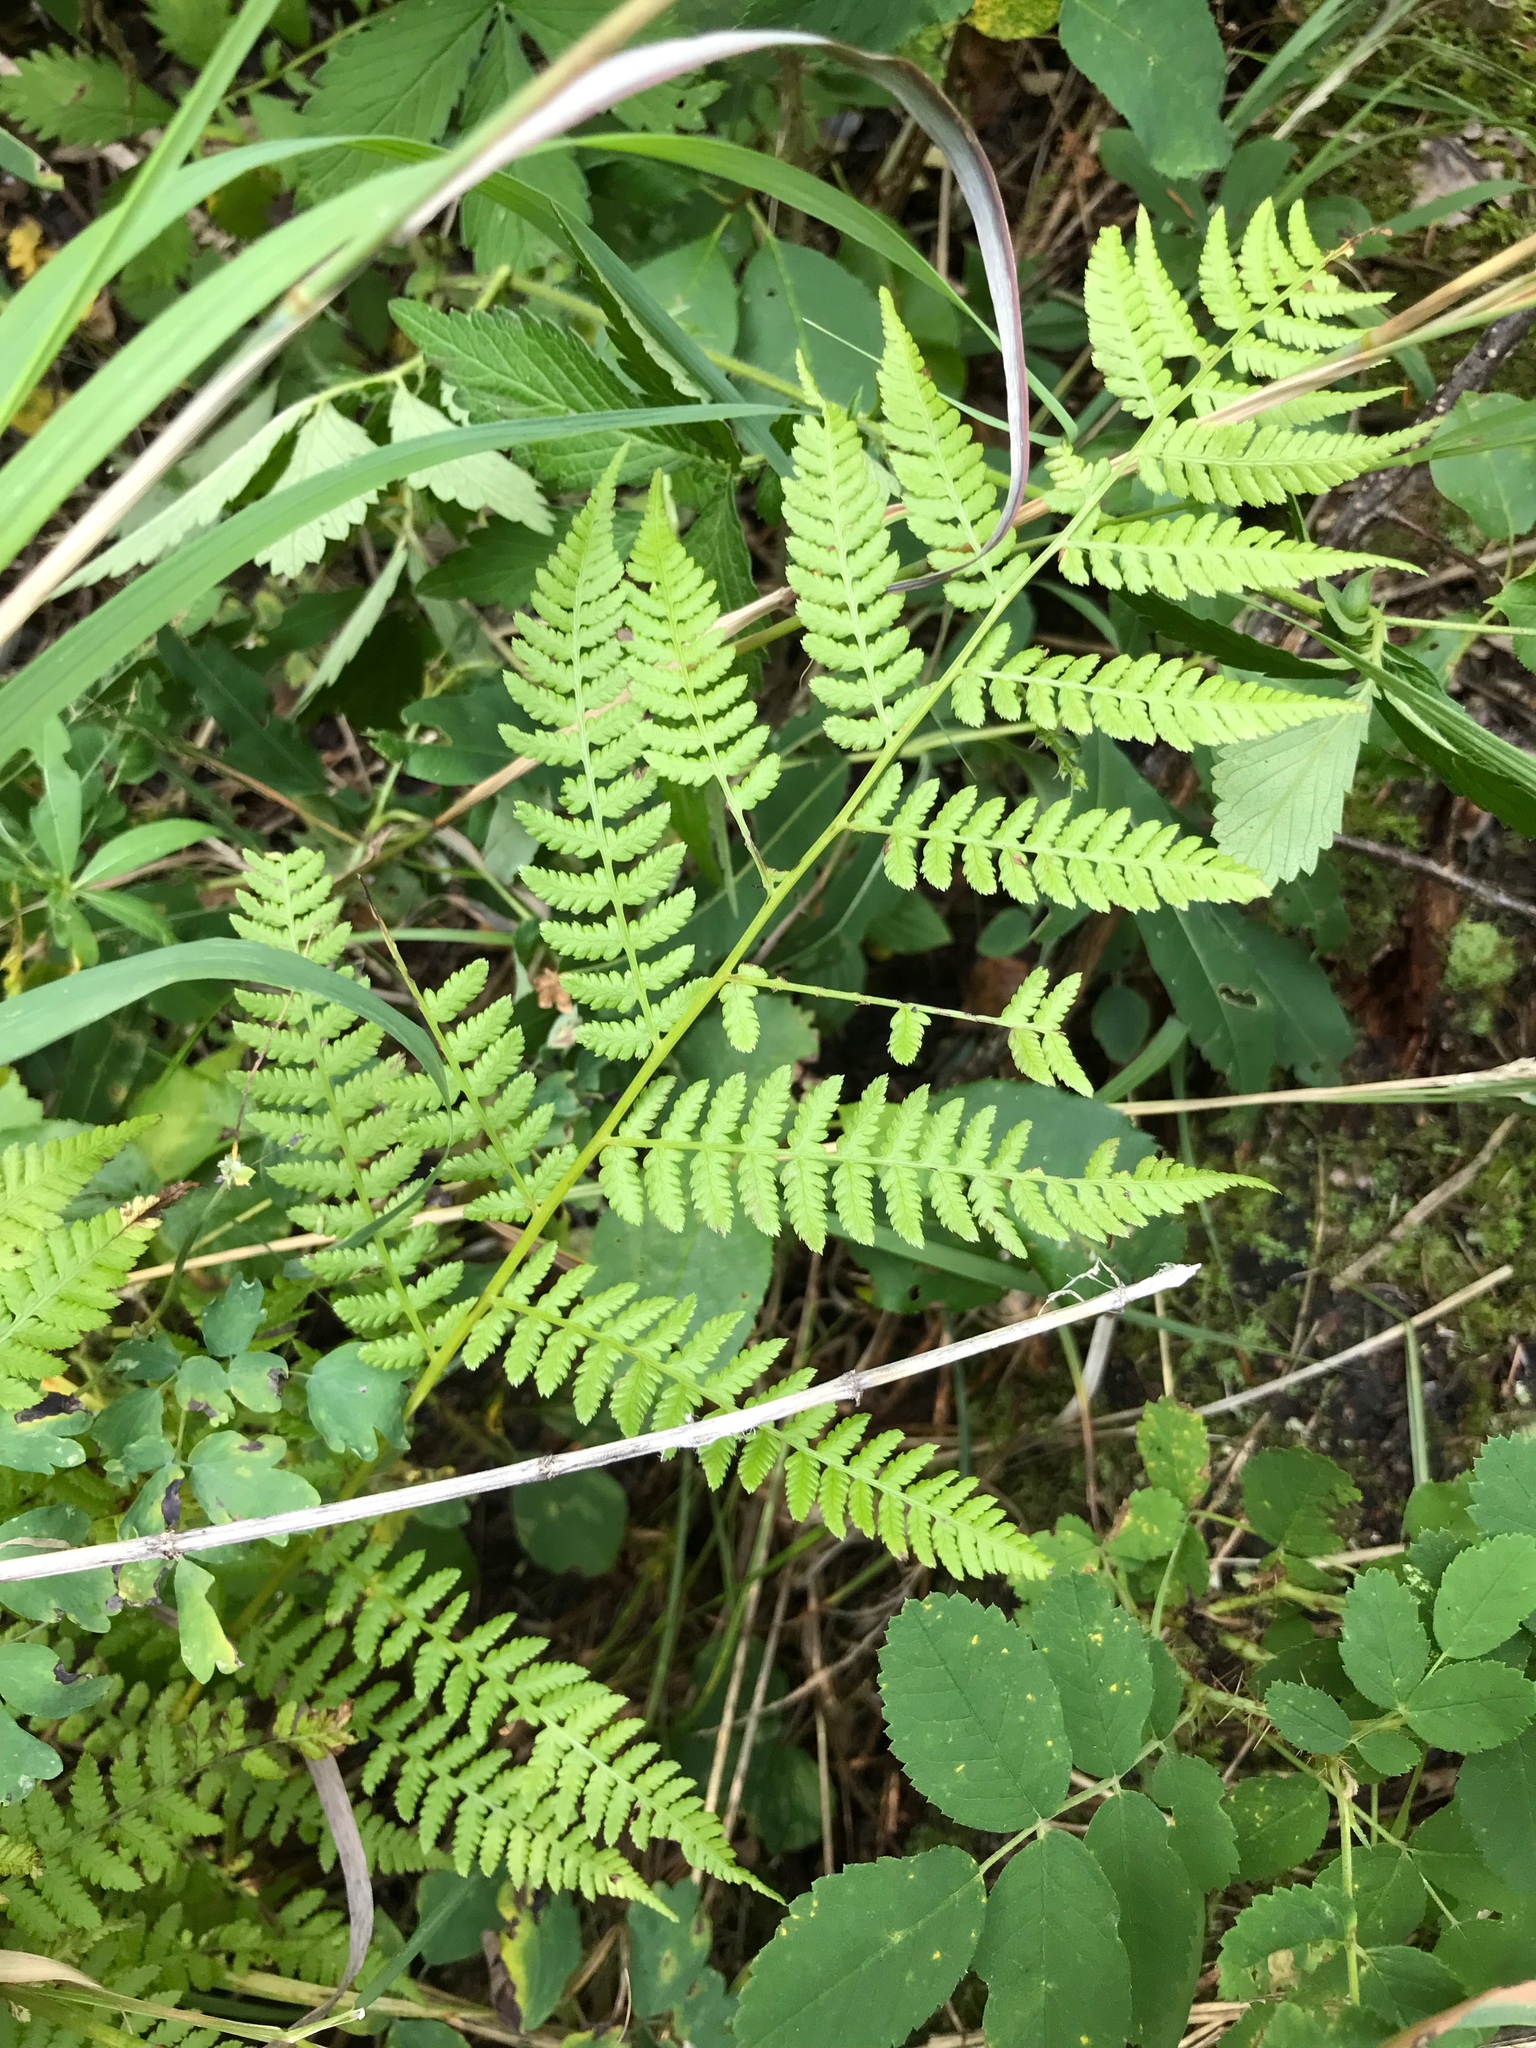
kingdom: Plantae
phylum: Tracheophyta
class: Polypodiopsida
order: Polypodiales
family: Athyriaceae
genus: Athyrium
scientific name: Athyrium cyclosorum
